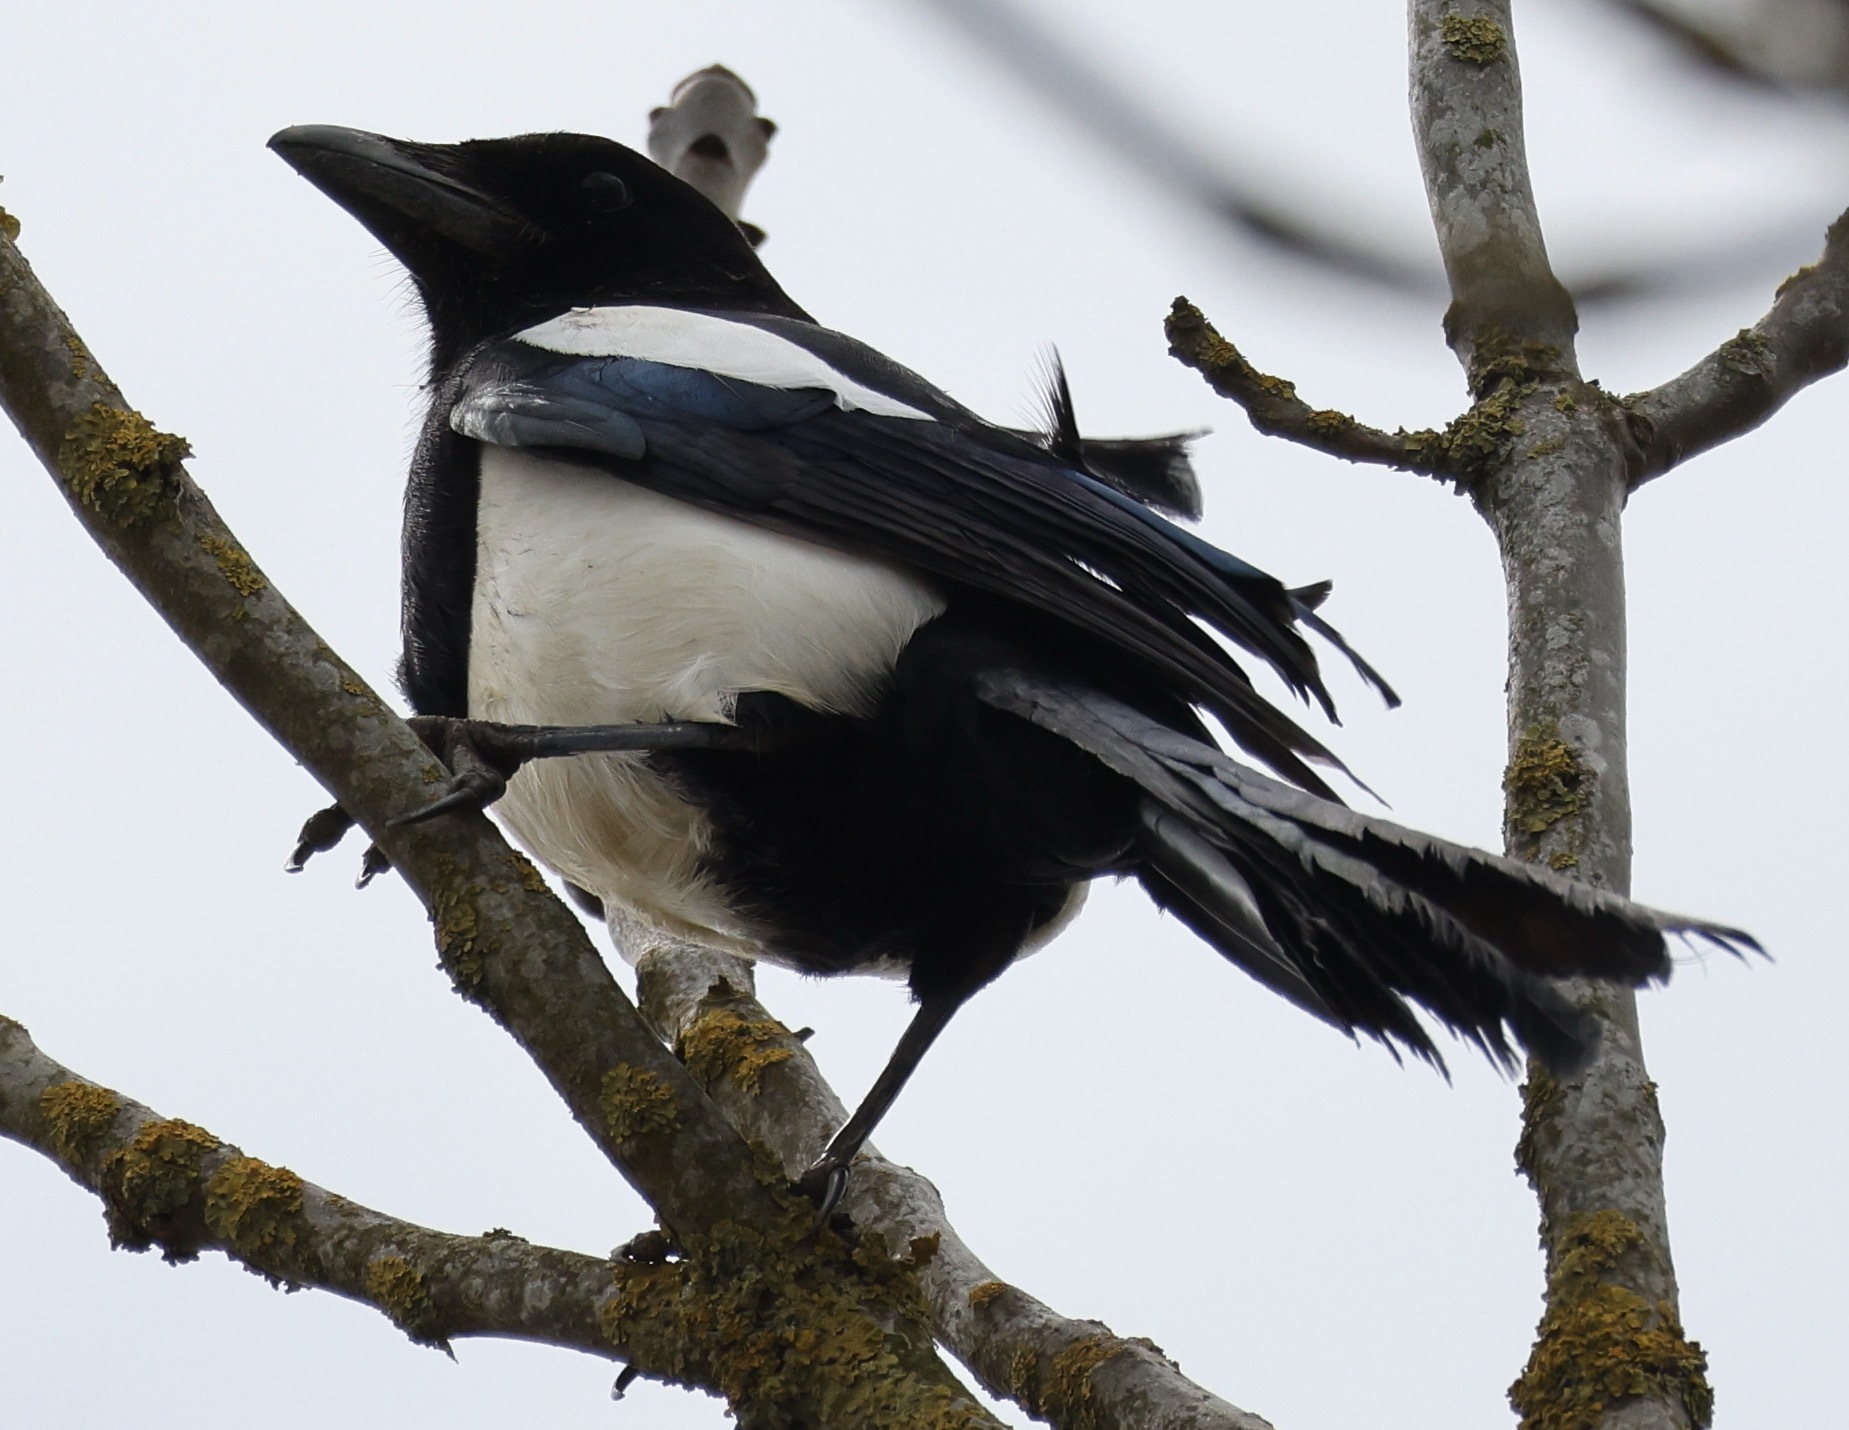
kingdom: Animalia
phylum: Chordata
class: Aves
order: Passeriformes
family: Corvidae
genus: Pica
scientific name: Pica pica
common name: Eurasian magpie
